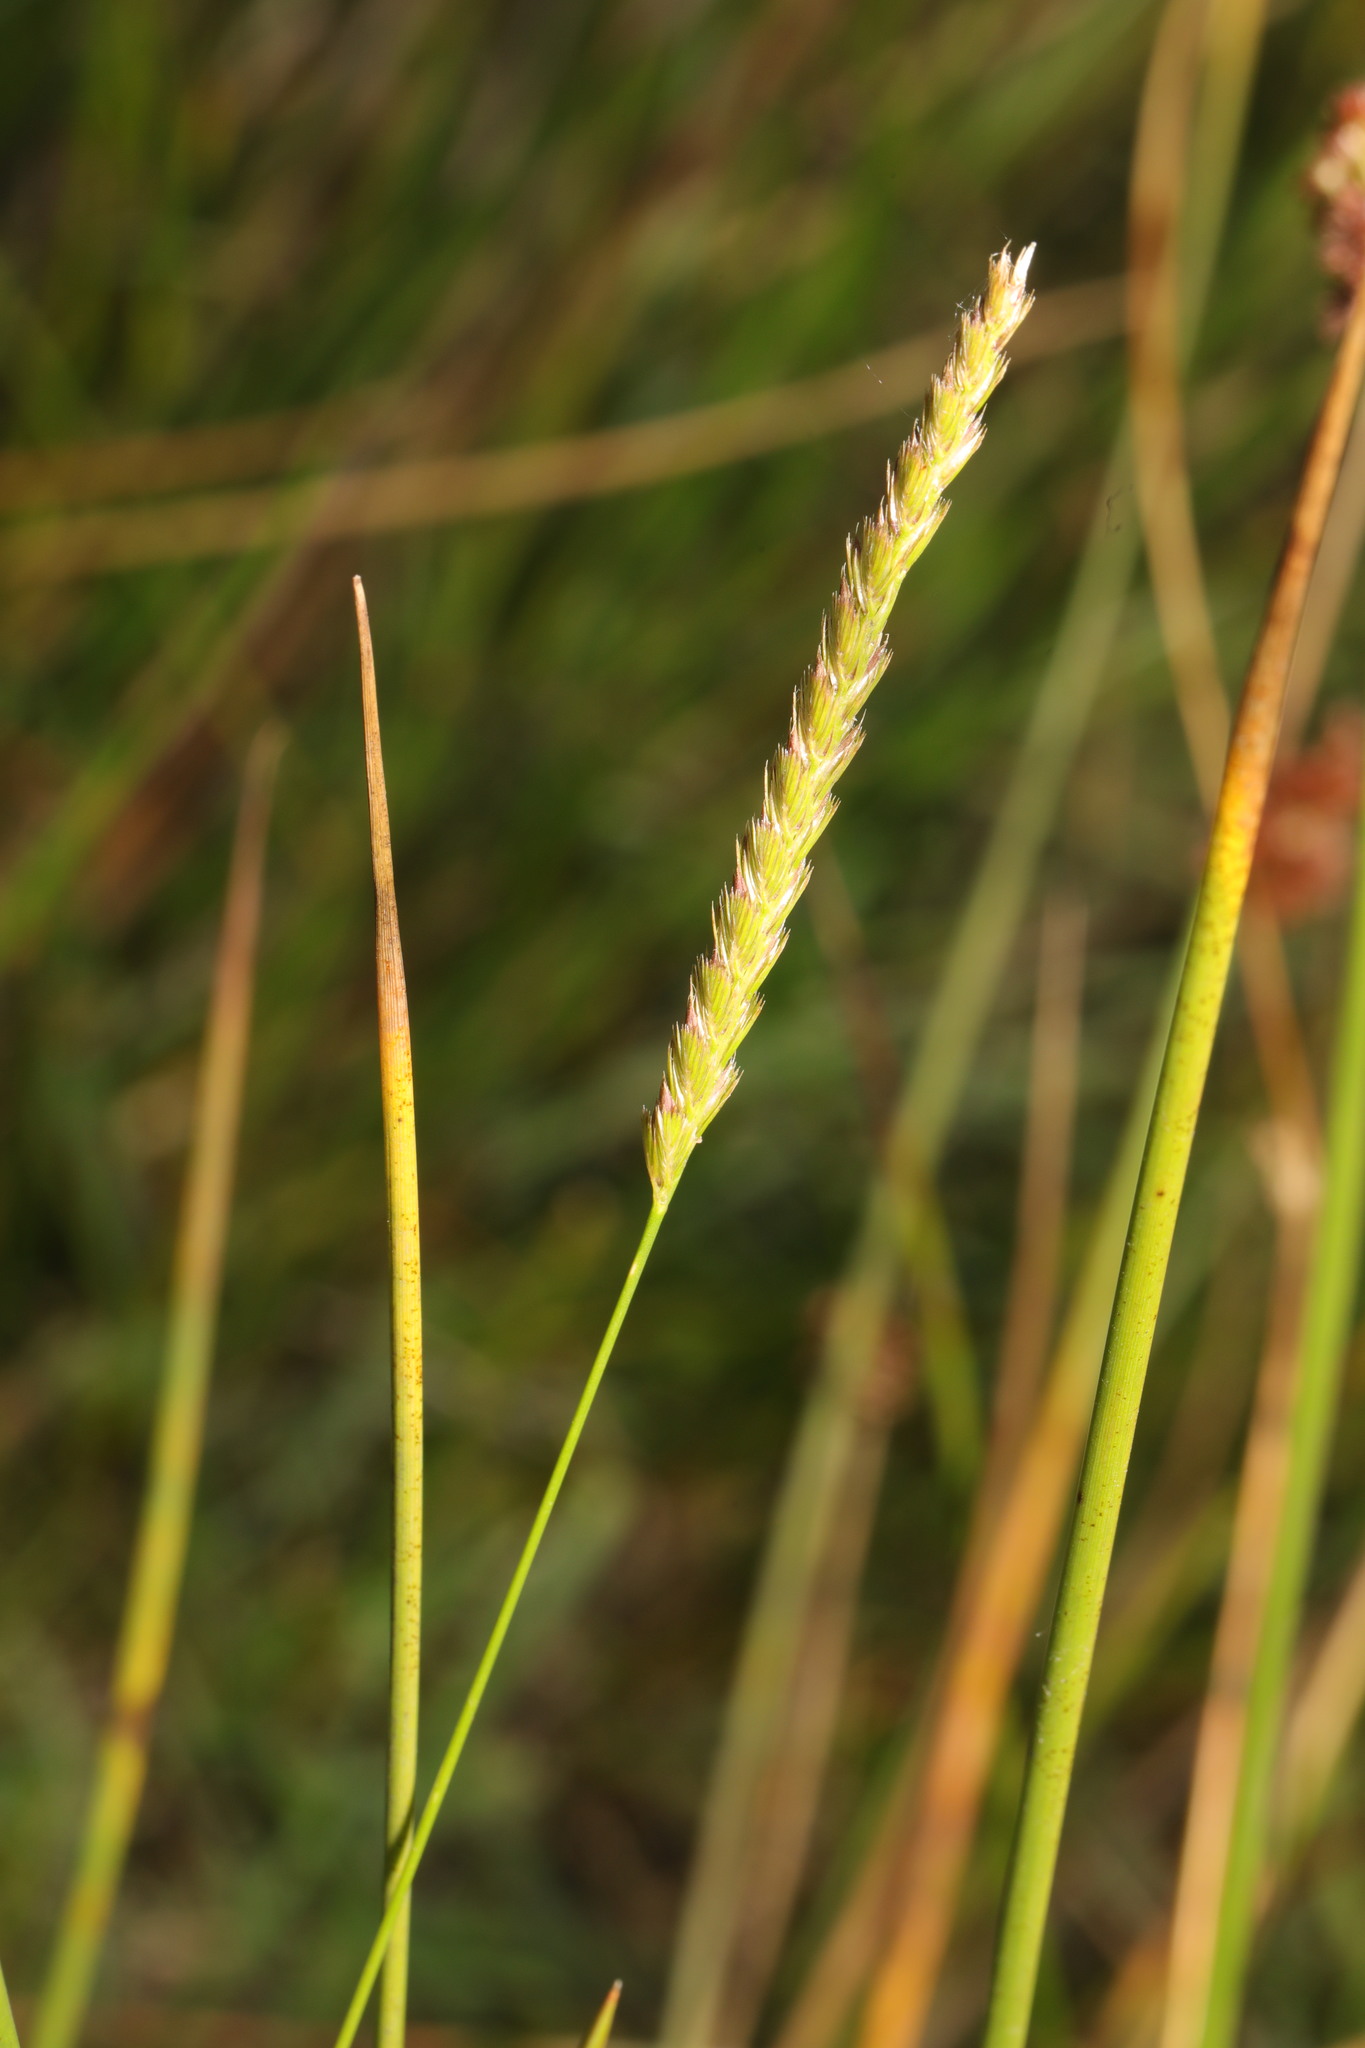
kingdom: Plantae
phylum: Tracheophyta
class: Liliopsida
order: Poales
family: Poaceae
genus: Cynosurus
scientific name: Cynosurus cristatus
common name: Crested dog's-tail
